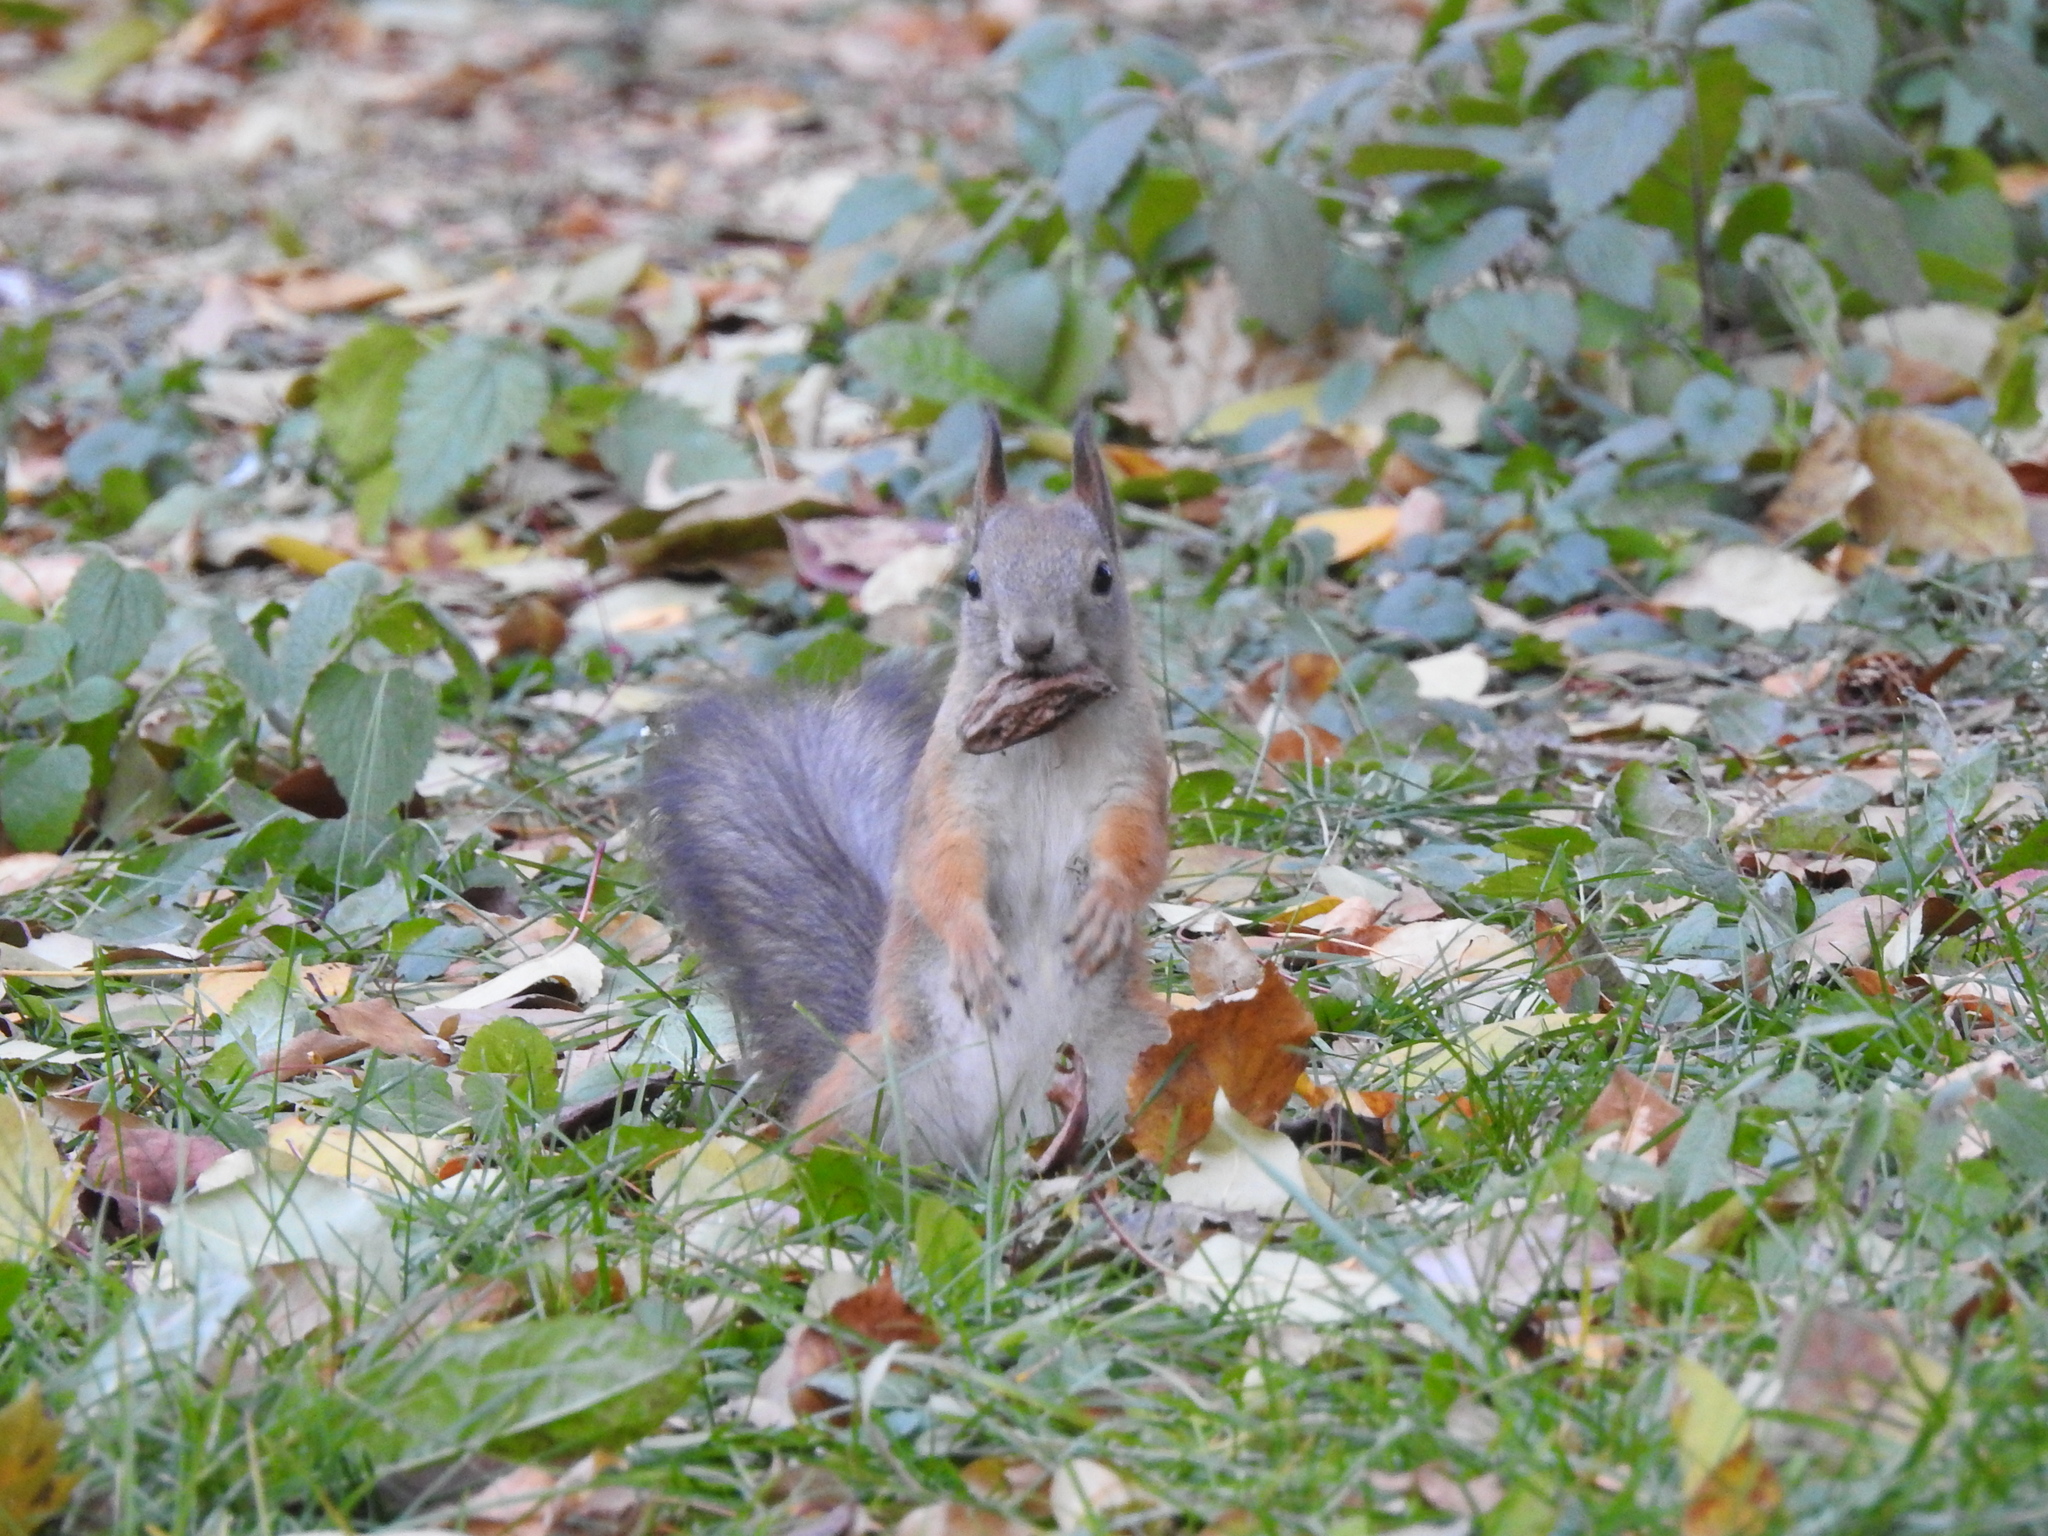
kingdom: Animalia
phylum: Chordata
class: Mammalia
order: Rodentia
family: Sciuridae
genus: Sciurus
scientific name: Sciurus vulgaris
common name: Eurasian red squirrel
